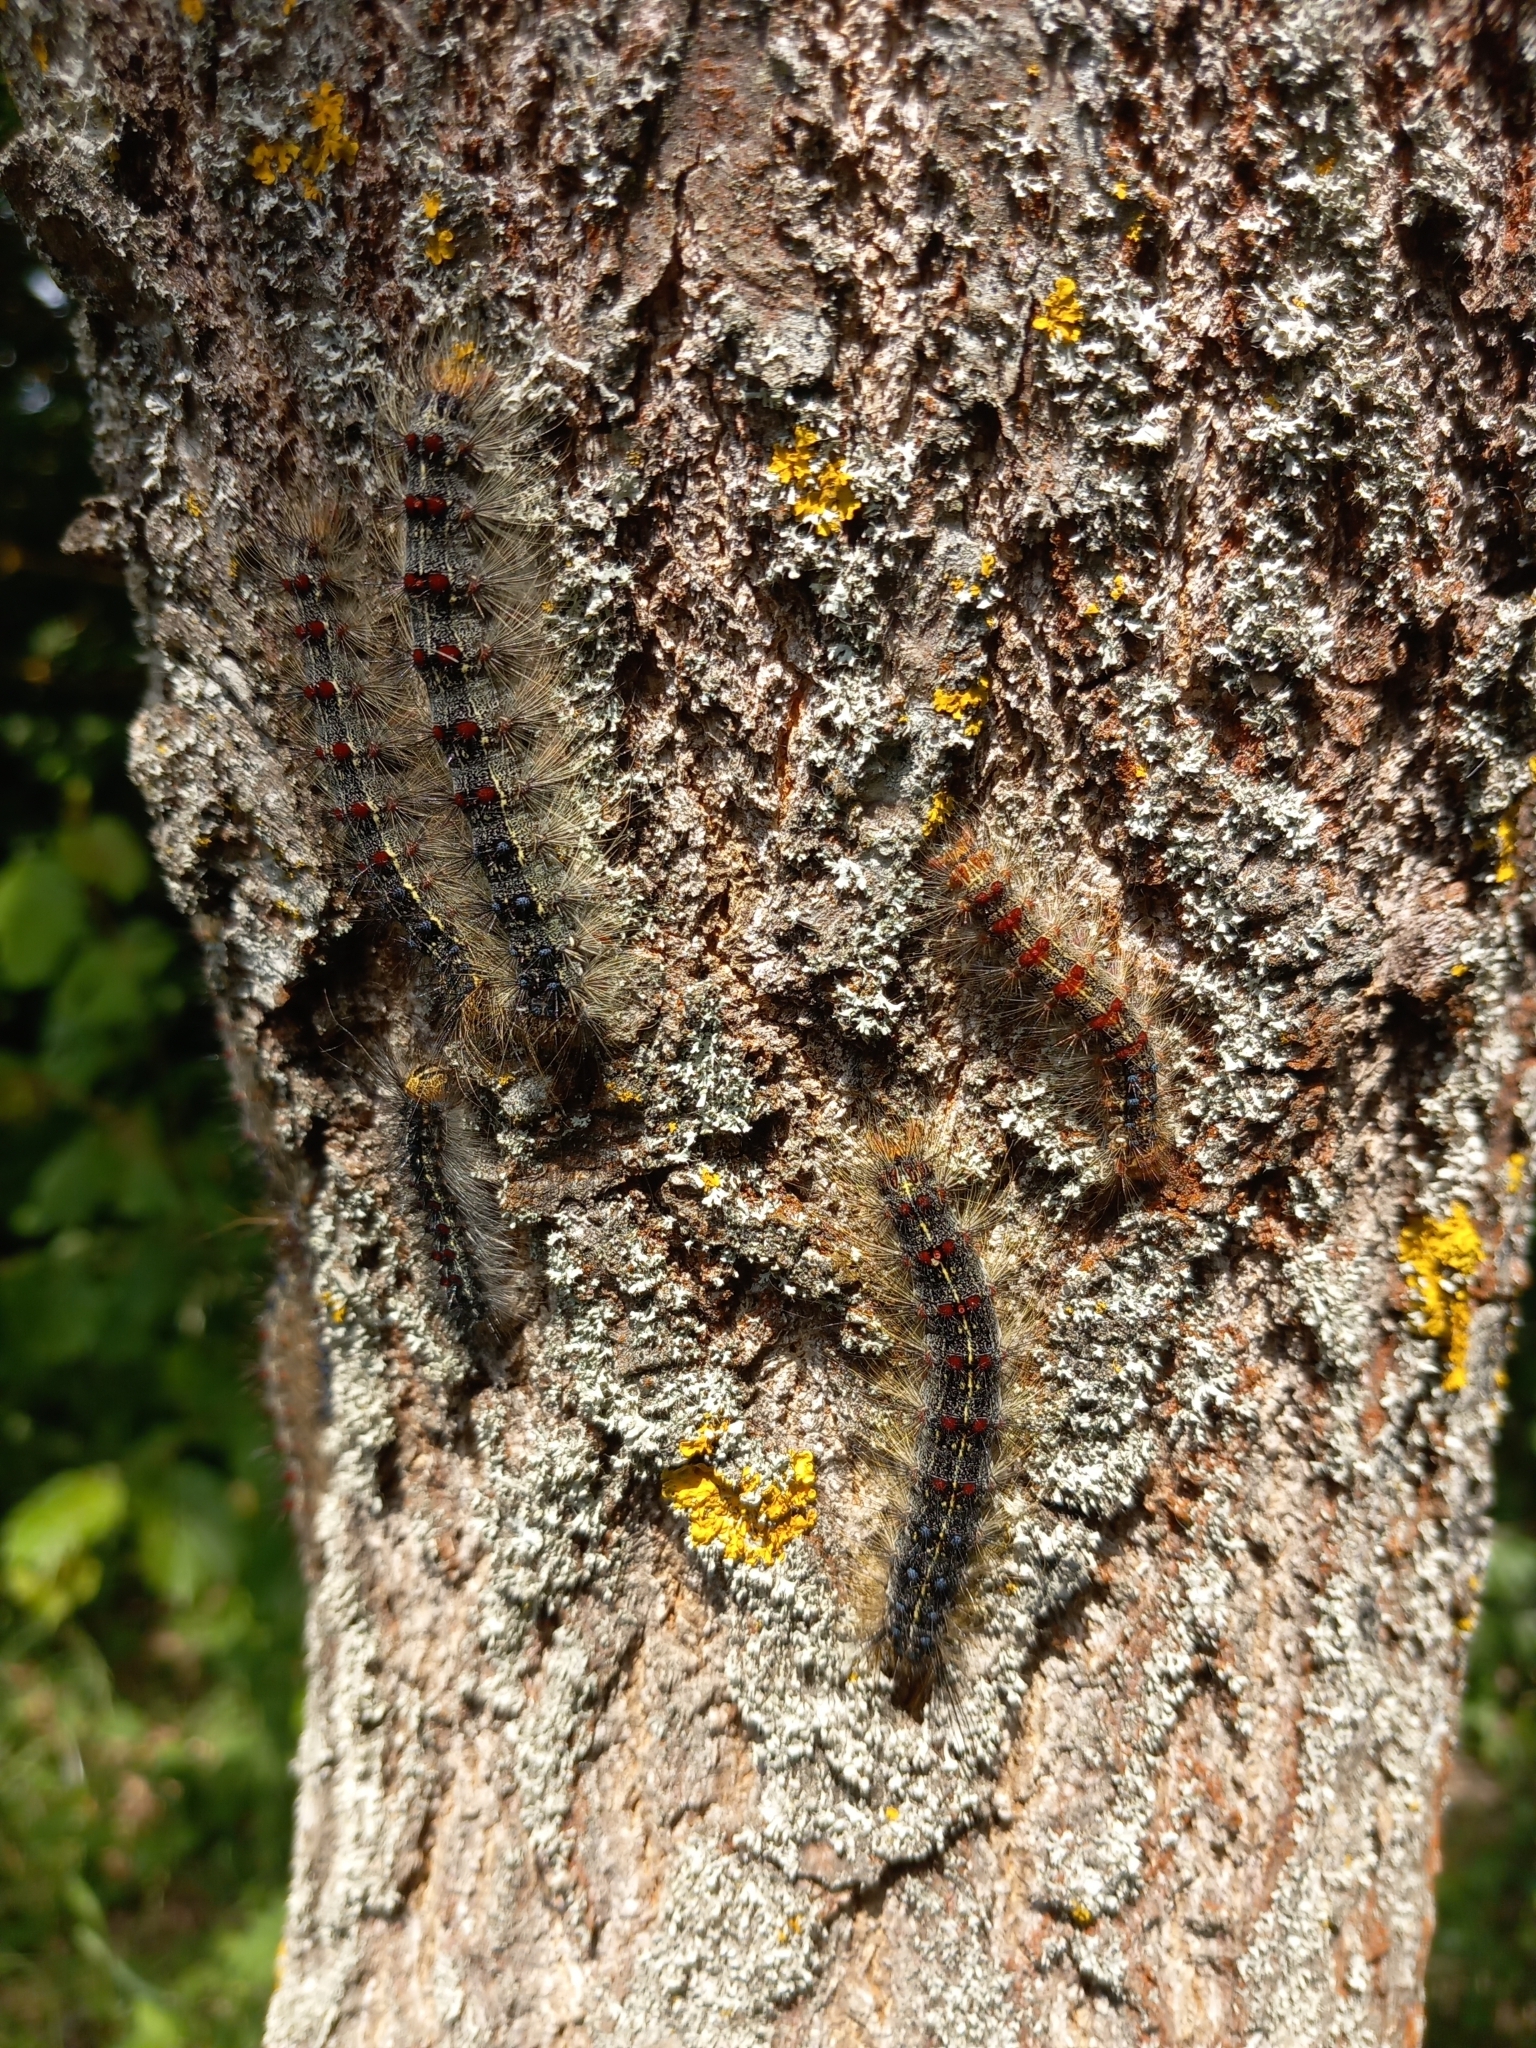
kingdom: Animalia
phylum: Arthropoda
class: Insecta
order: Lepidoptera
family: Erebidae
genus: Lymantria
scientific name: Lymantria dispar
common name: Gypsy moth
